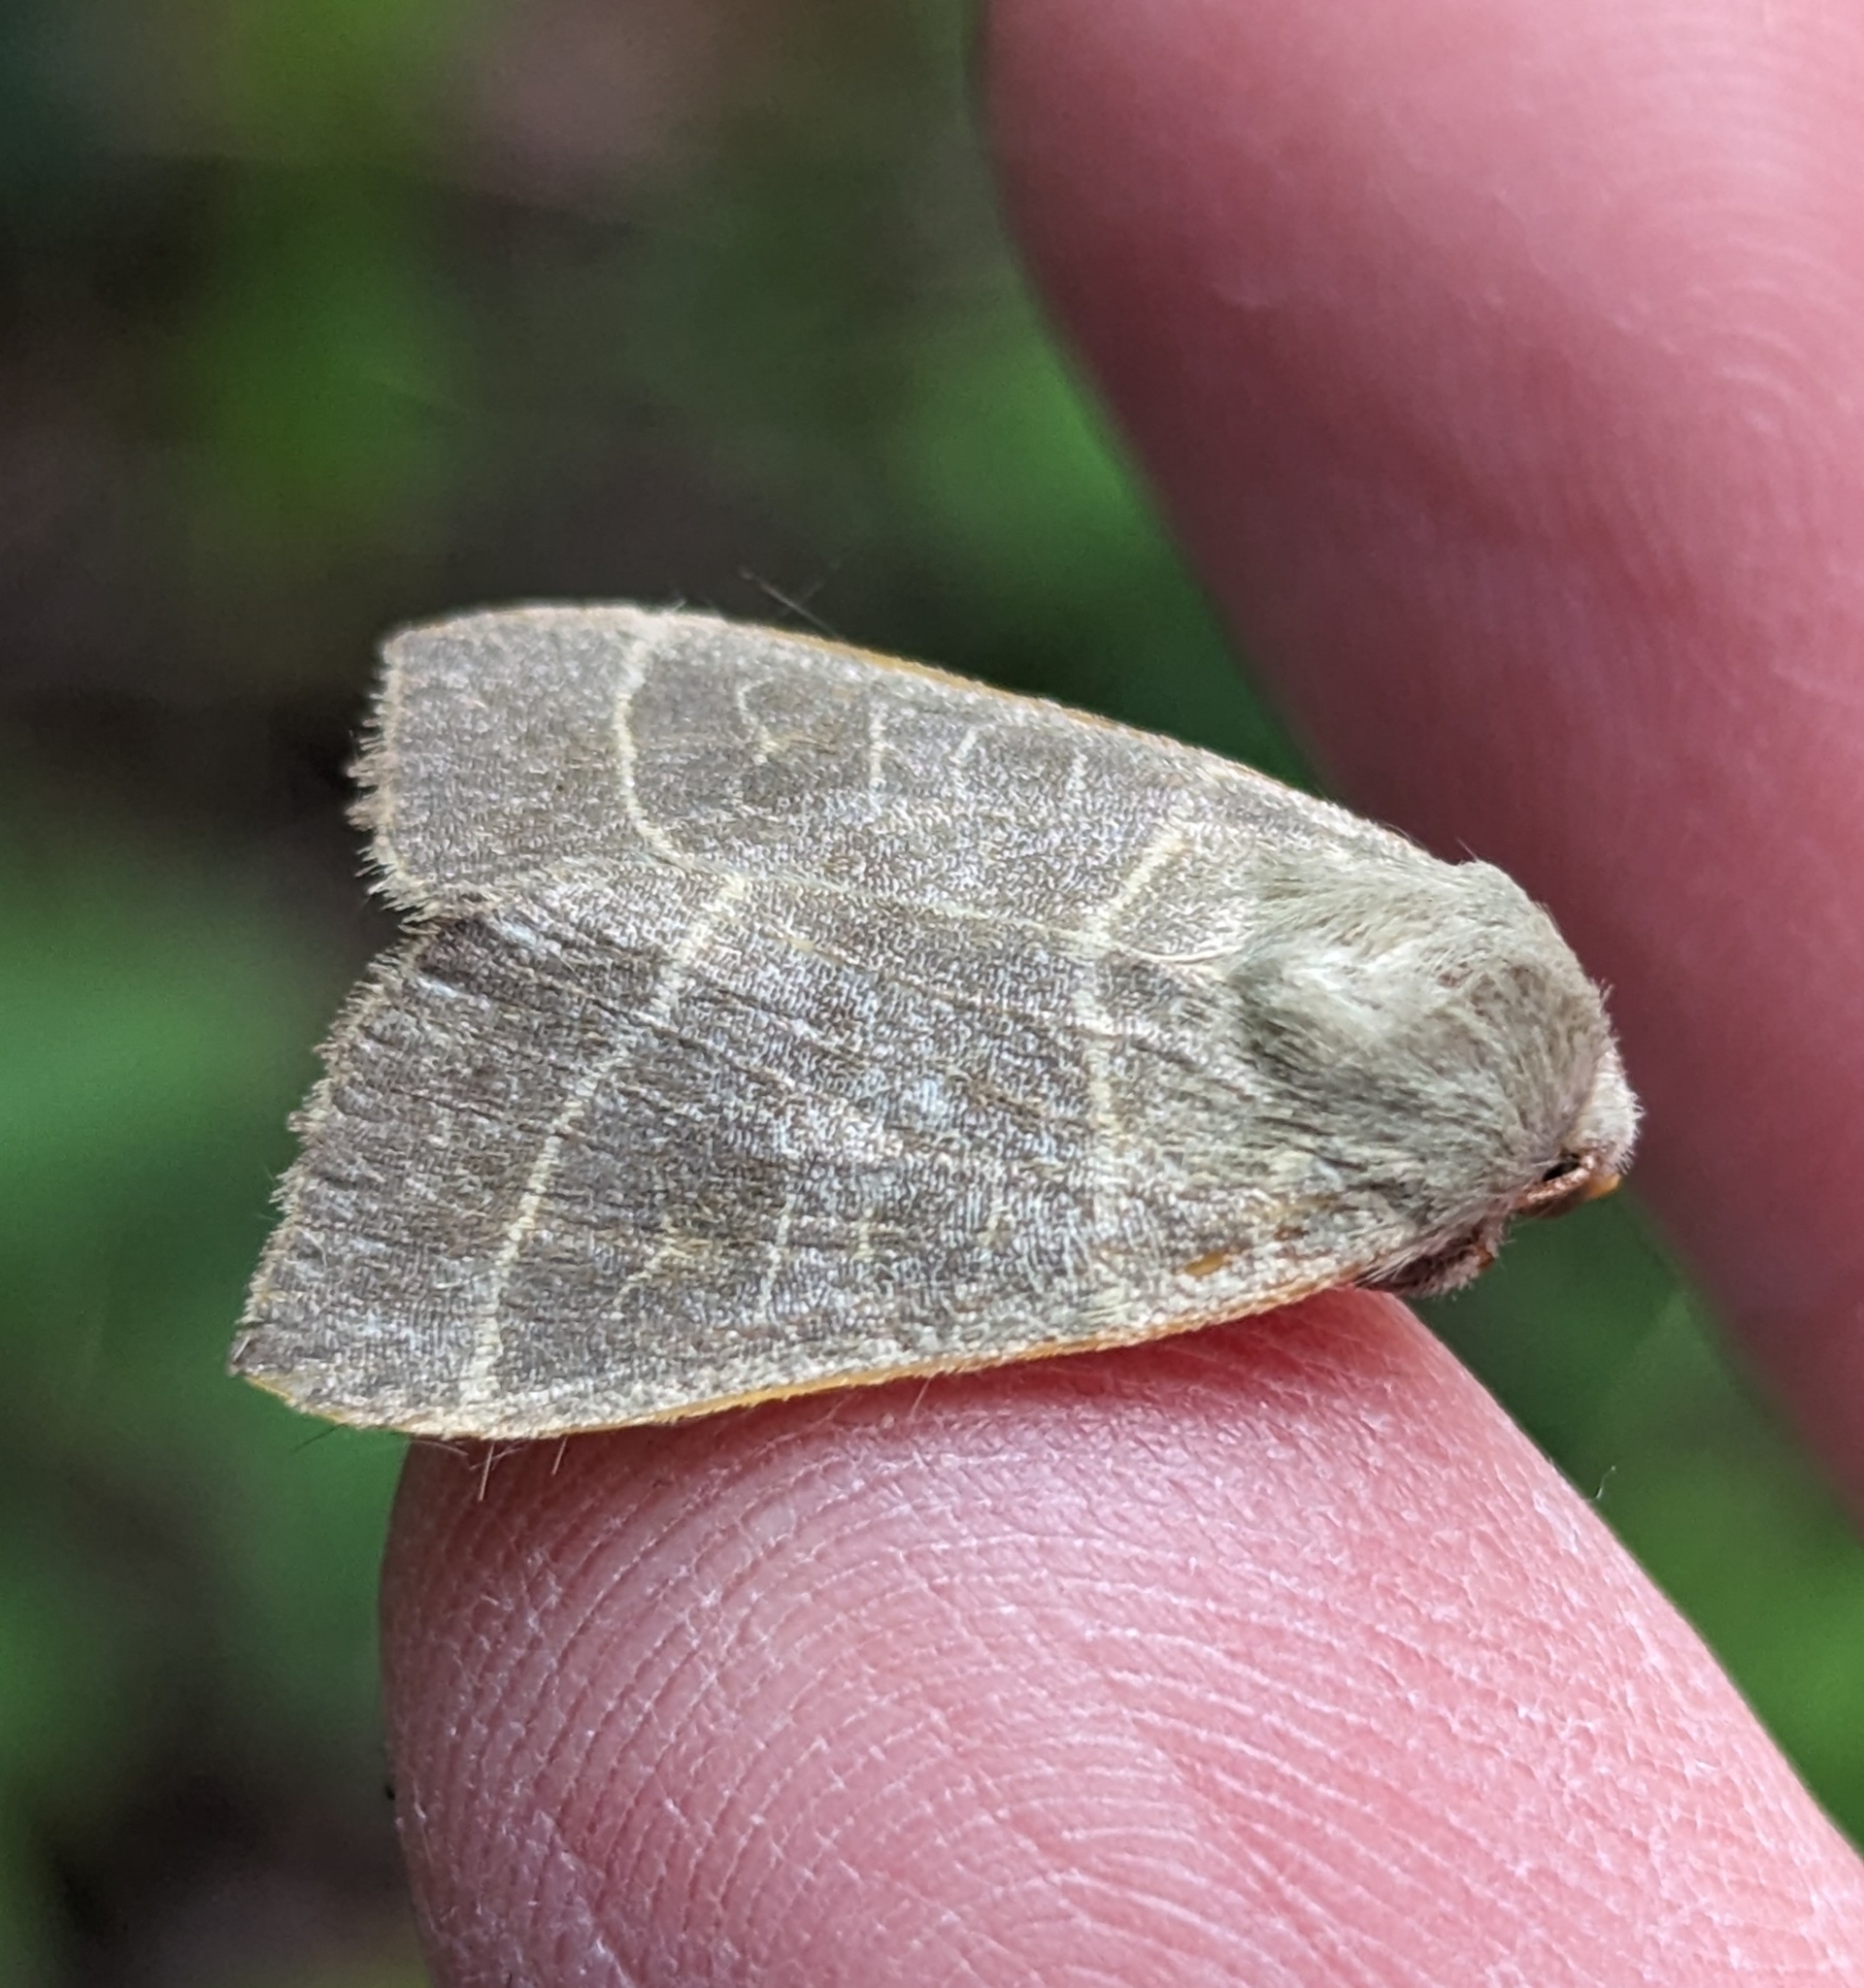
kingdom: Animalia
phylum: Arthropoda
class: Insecta
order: Lepidoptera
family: Noctuidae
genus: Ipimorpha
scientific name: Ipimorpha pleonectusa
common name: Even-lined sallow
